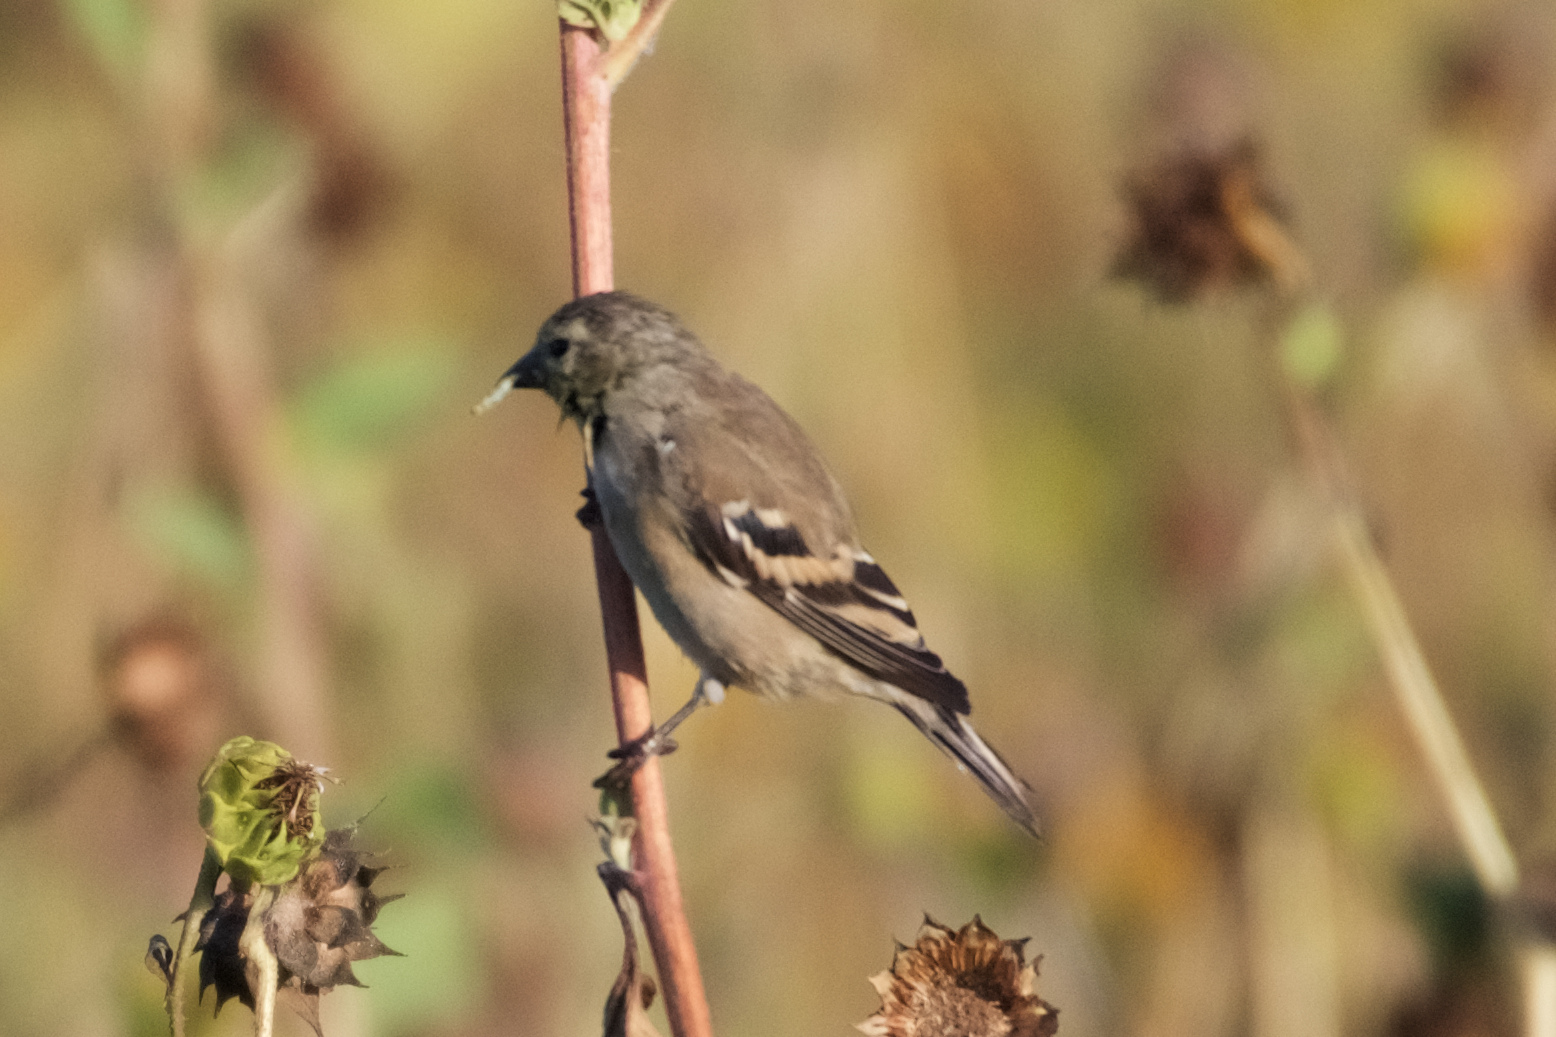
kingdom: Animalia
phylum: Chordata
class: Aves
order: Passeriformes
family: Fringillidae
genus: Spinus
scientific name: Spinus tristis
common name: American goldfinch
